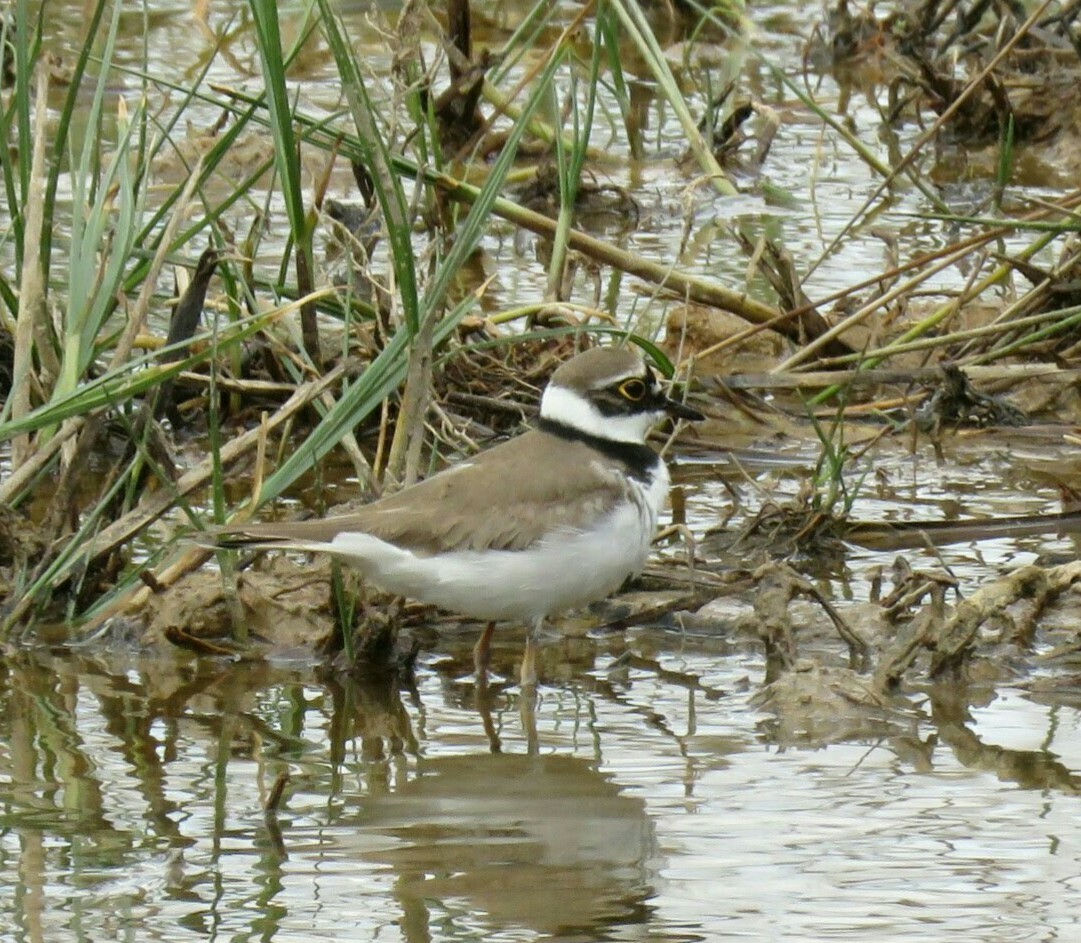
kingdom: Animalia
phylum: Chordata
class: Aves
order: Charadriiformes
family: Charadriidae
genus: Charadrius
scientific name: Charadrius dubius
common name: Little ringed plover
